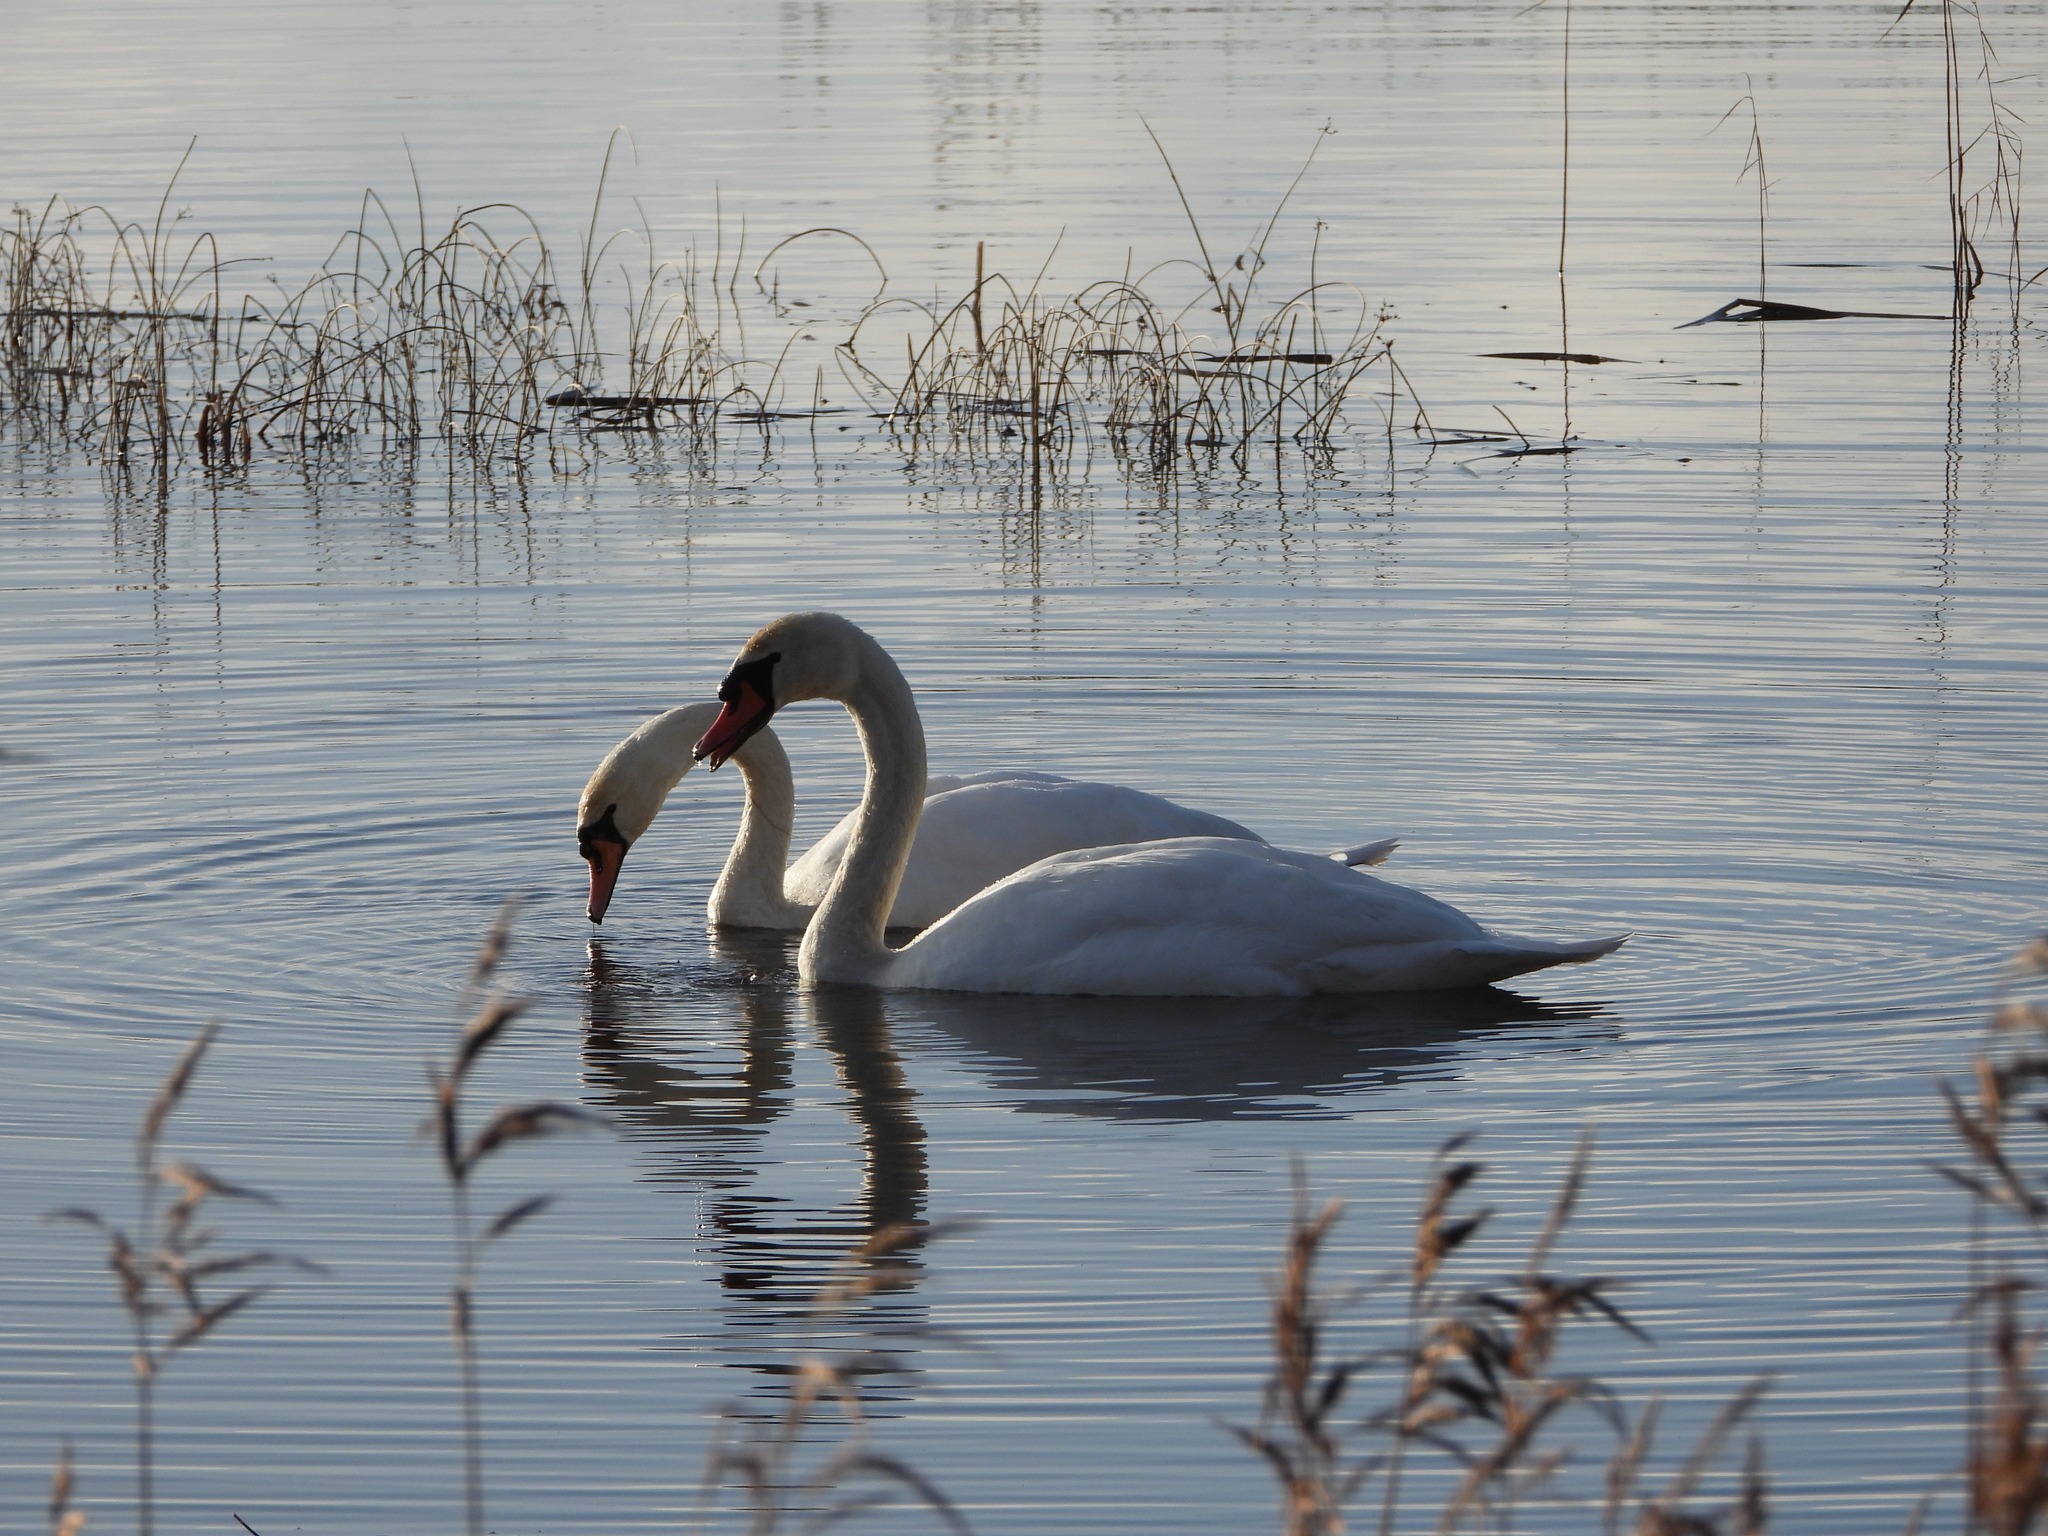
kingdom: Animalia
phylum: Chordata
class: Aves
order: Anseriformes
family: Anatidae
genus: Cygnus
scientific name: Cygnus olor
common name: Mute swan
